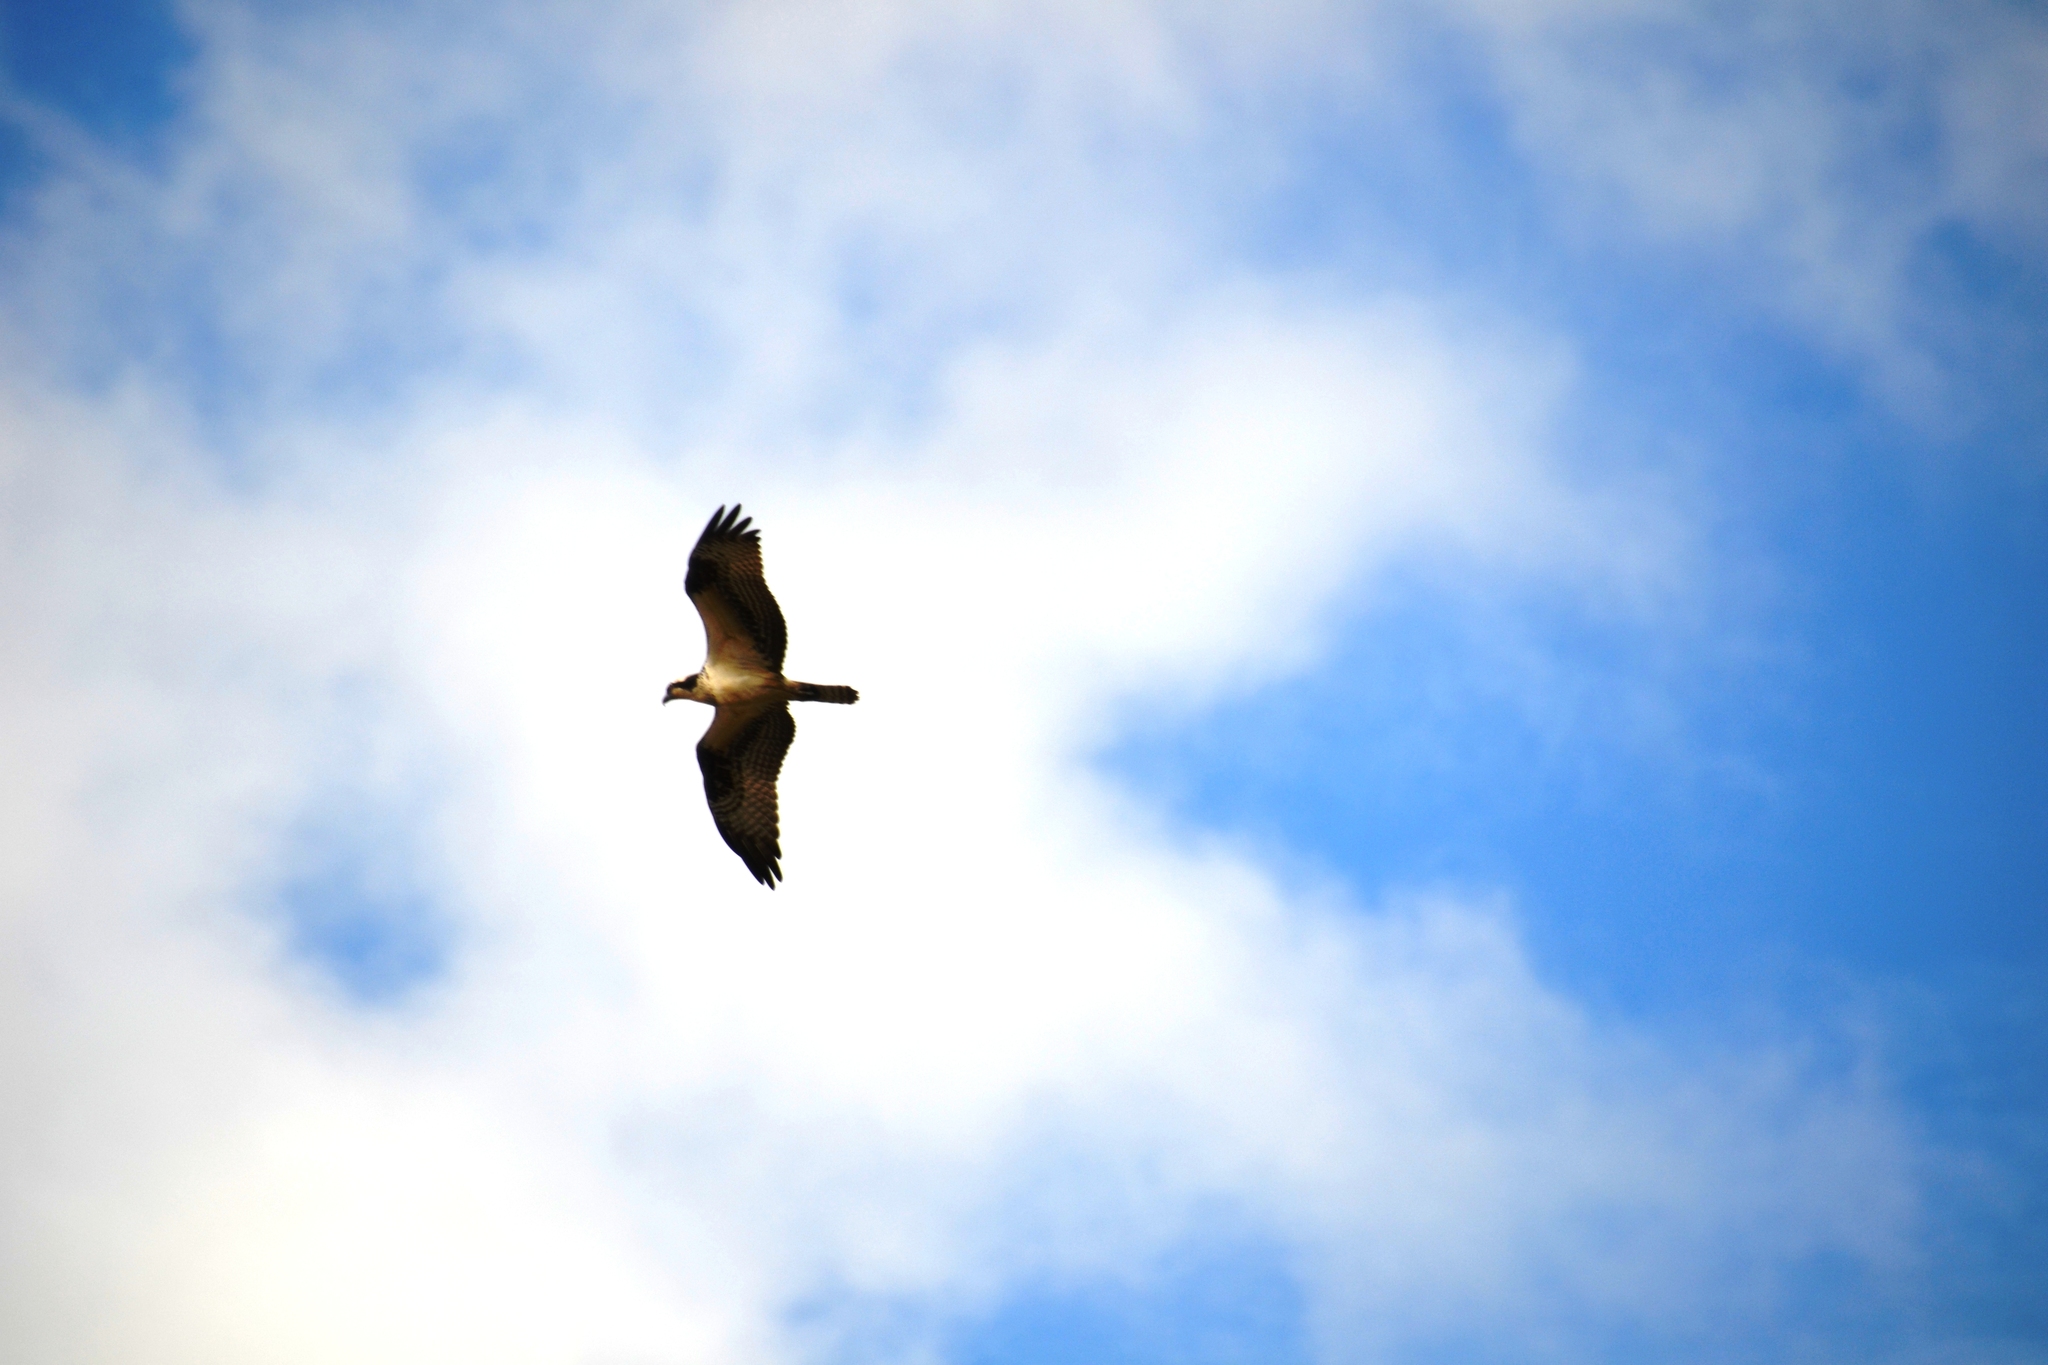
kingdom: Animalia
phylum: Chordata
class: Aves
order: Accipitriformes
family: Pandionidae
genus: Pandion
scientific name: Pandion haliaetus
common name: Osprey
